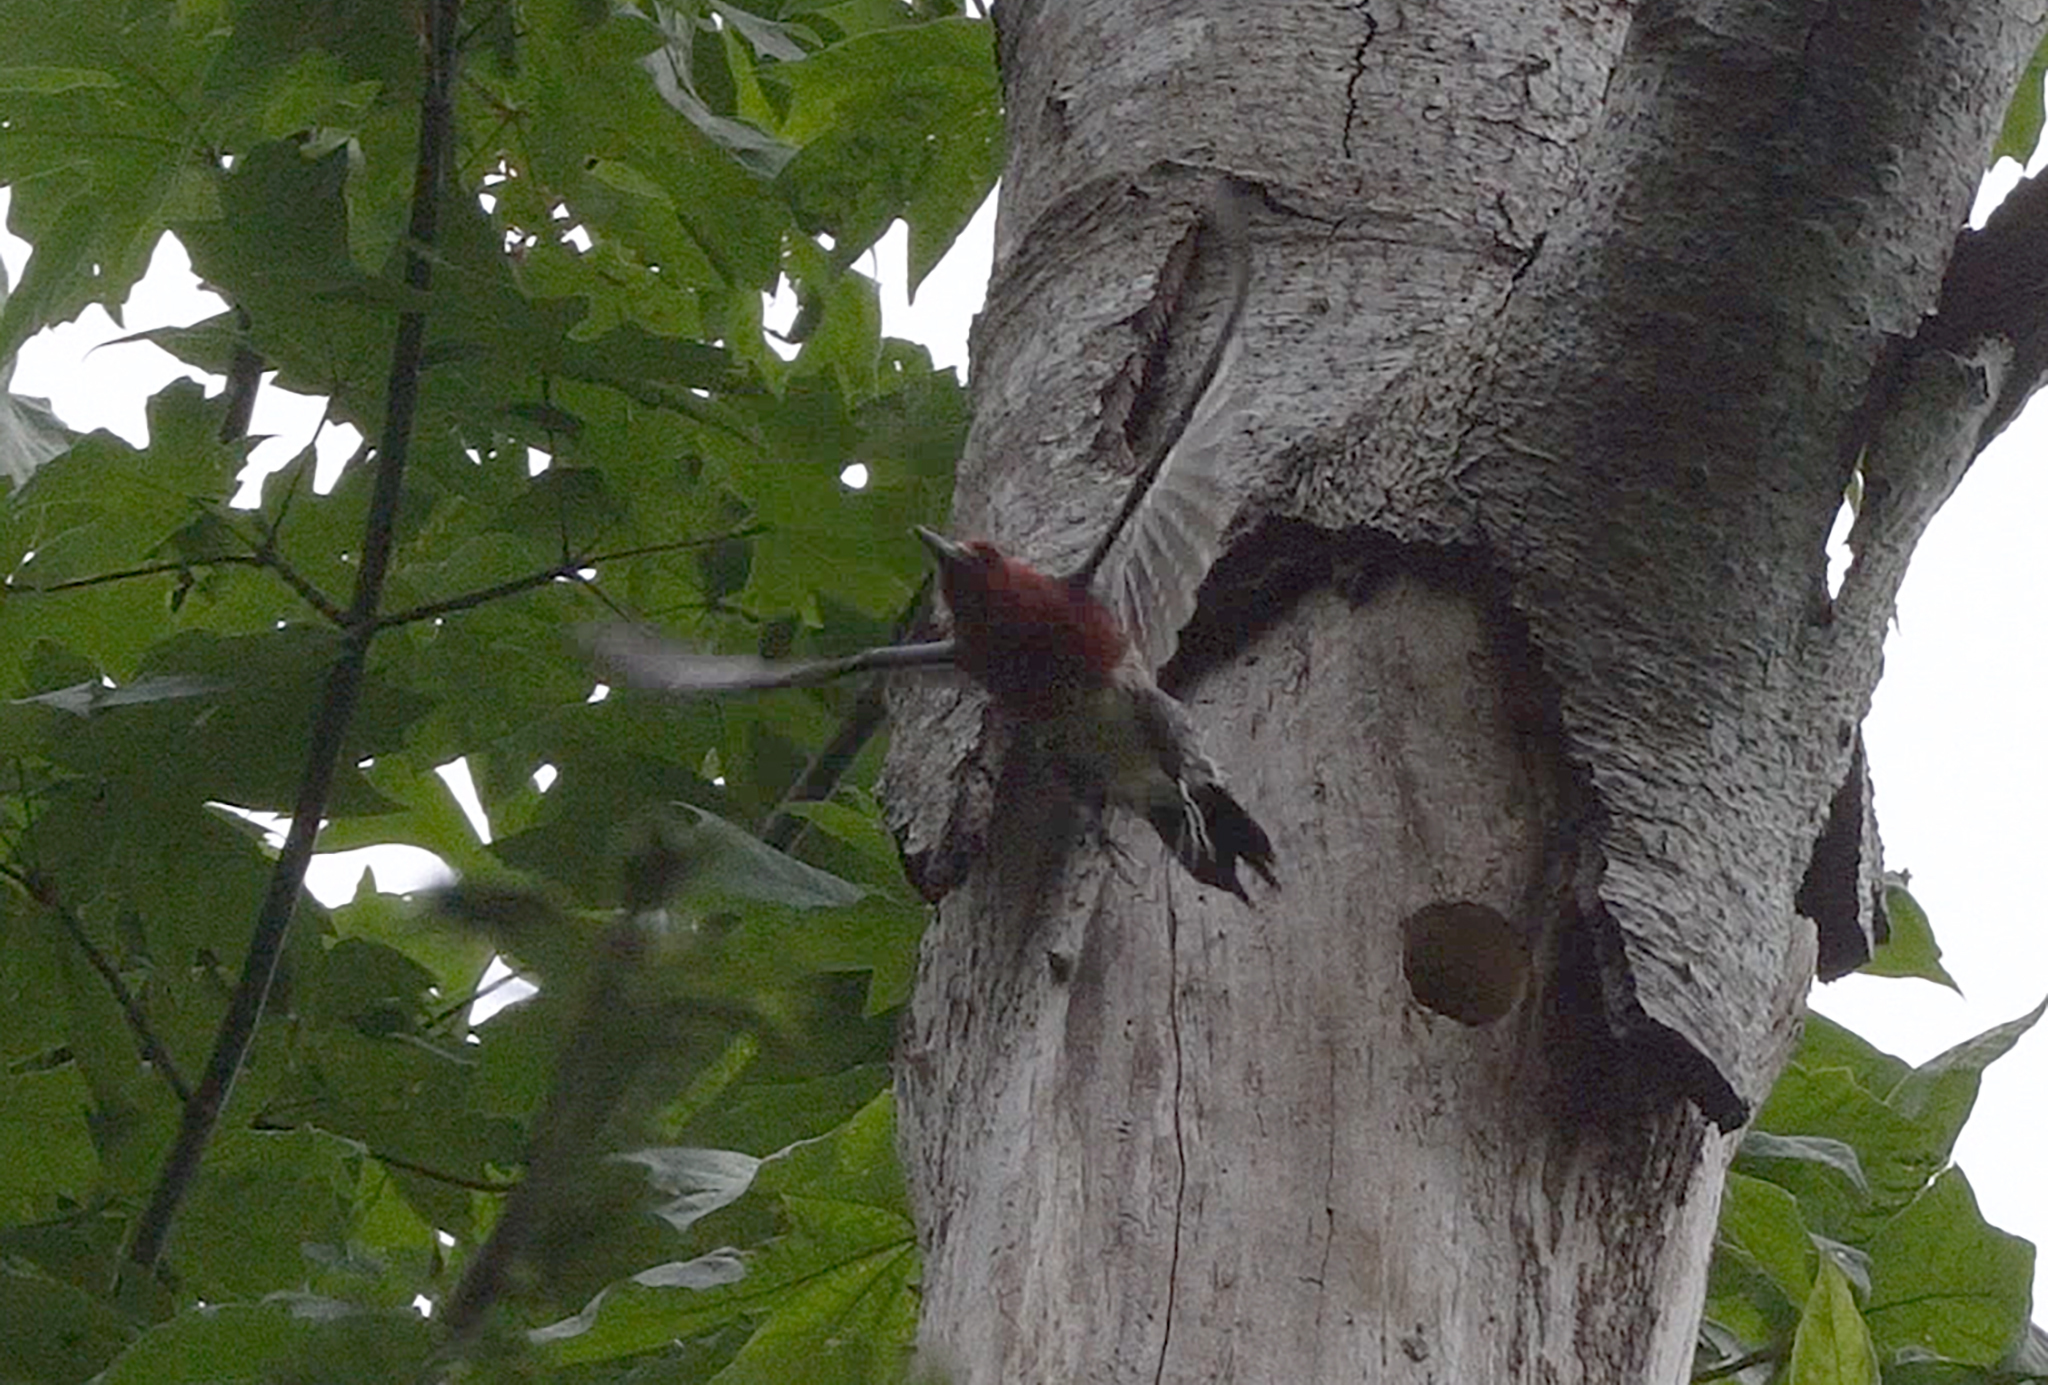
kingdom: Animalia
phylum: Chordata
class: Aves
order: Piciformes
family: Picidae
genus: Sphyrapicus
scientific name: Sphyrapicus ruber
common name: Red-breasted sapsucker
